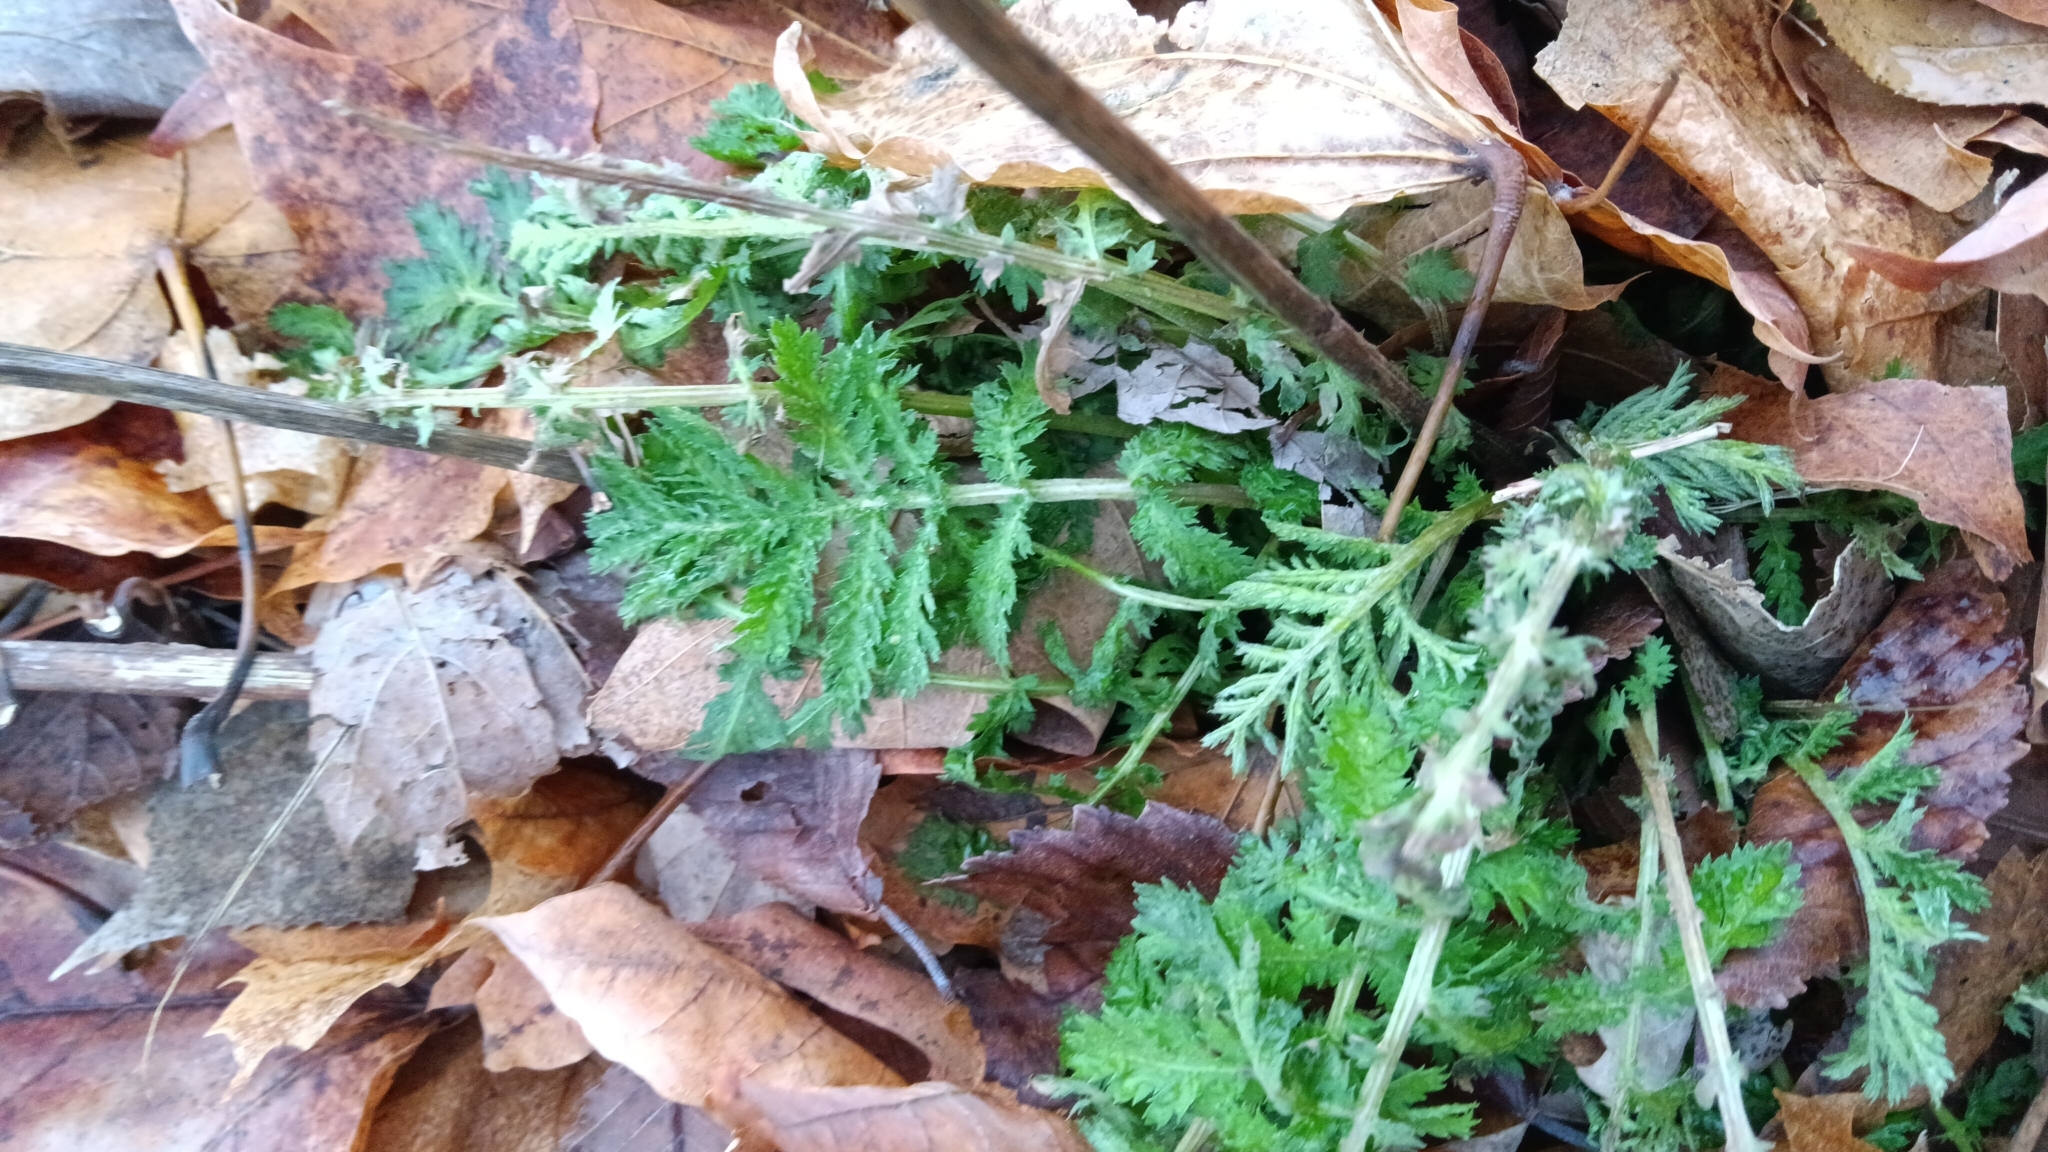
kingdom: Plantae
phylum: Tracheophyta
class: Magnoliopsida
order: Asterales
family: Asteraceae
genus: Tanacetum
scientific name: Tanacetum vulgare
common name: Common tansy
